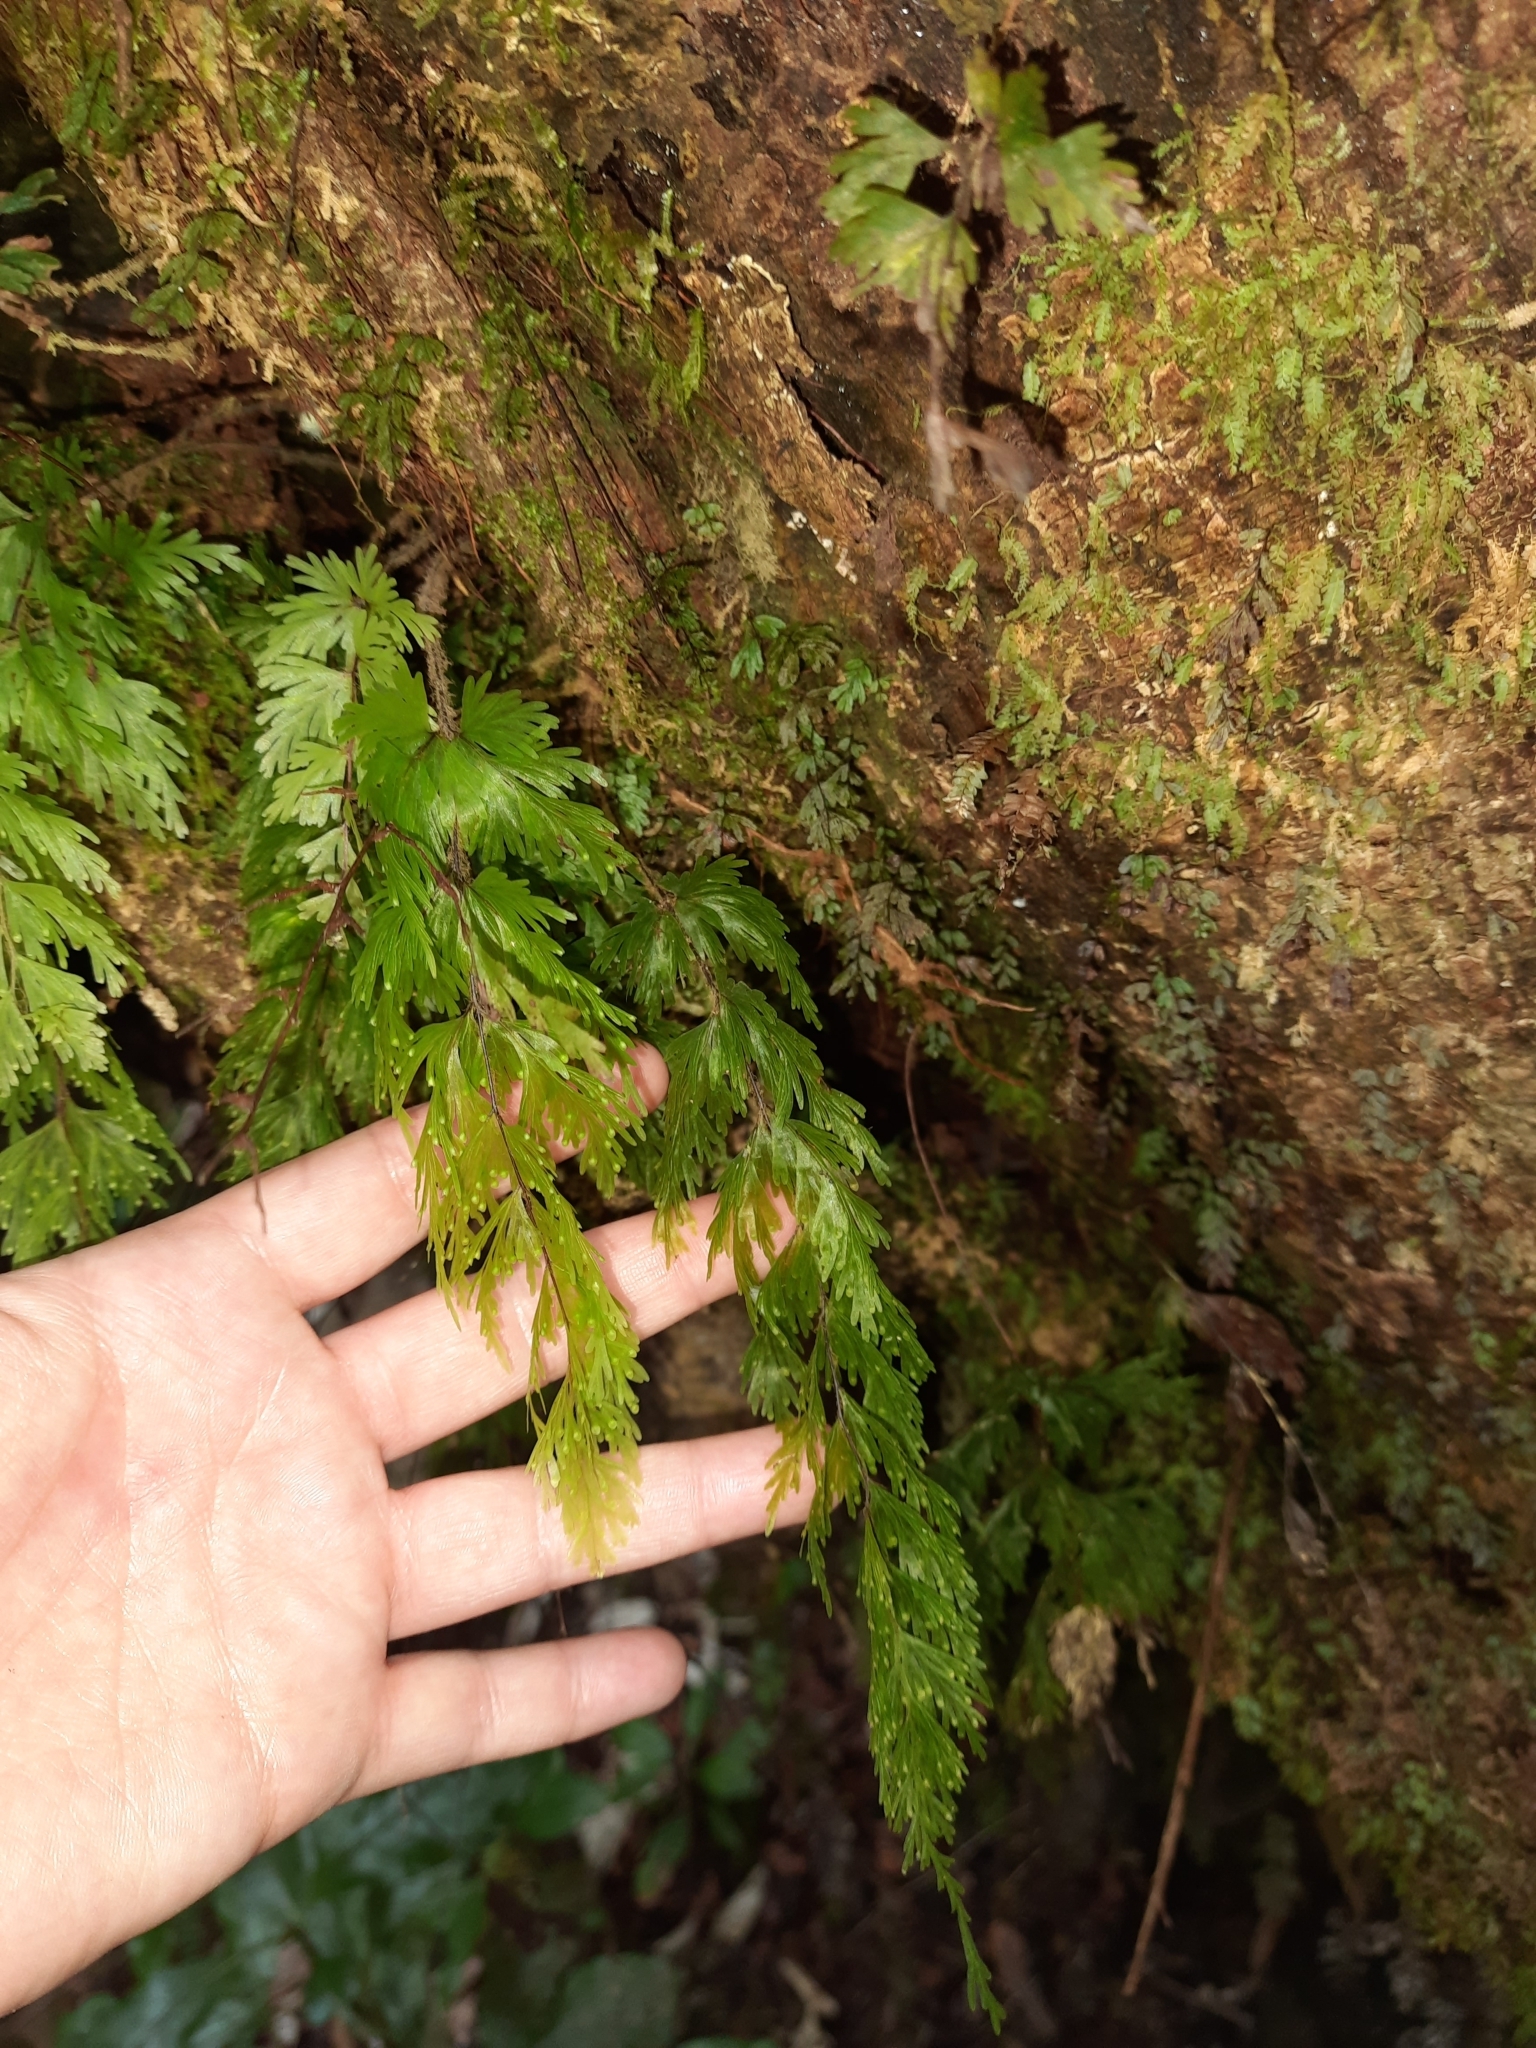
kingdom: Plantae
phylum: Tracheophyta
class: Polypodiopsida
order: Hymenophyllales
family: Hymenophyllaceae
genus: Hymenophyllum
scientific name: Hymenophyllum flabellatum
